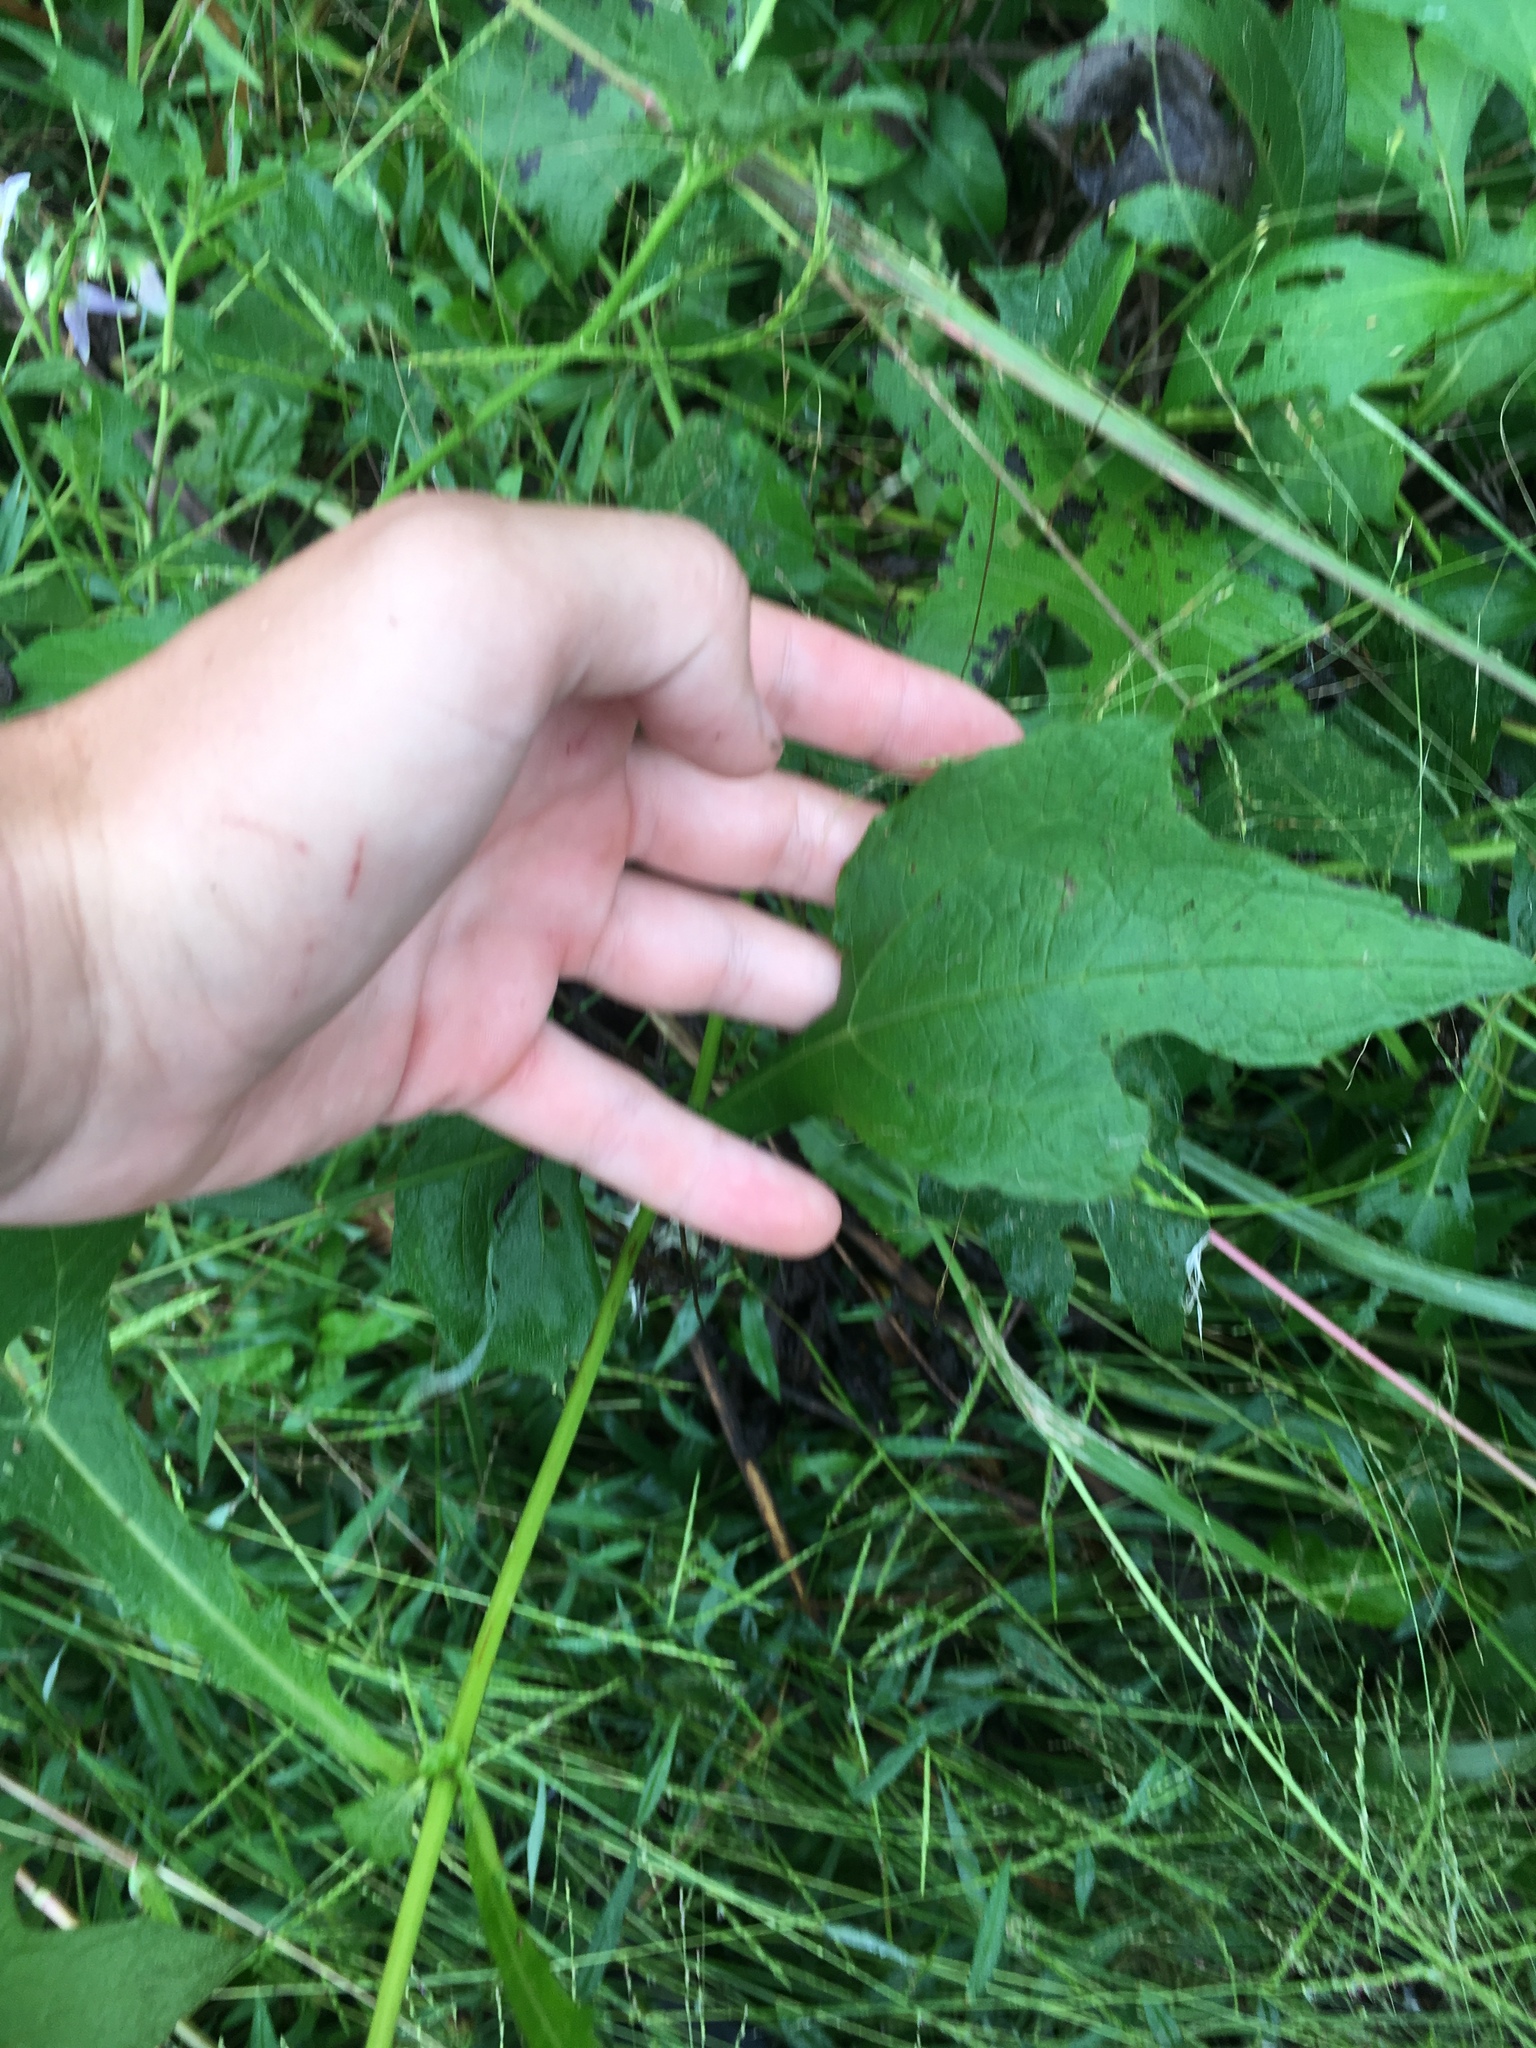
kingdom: Plantae
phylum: Tracheophyta
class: Magnoliopsida
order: Asterales
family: Asteraceae
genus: Smallanthus
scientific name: Smallanthus uvedalia
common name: Bear's-foot
